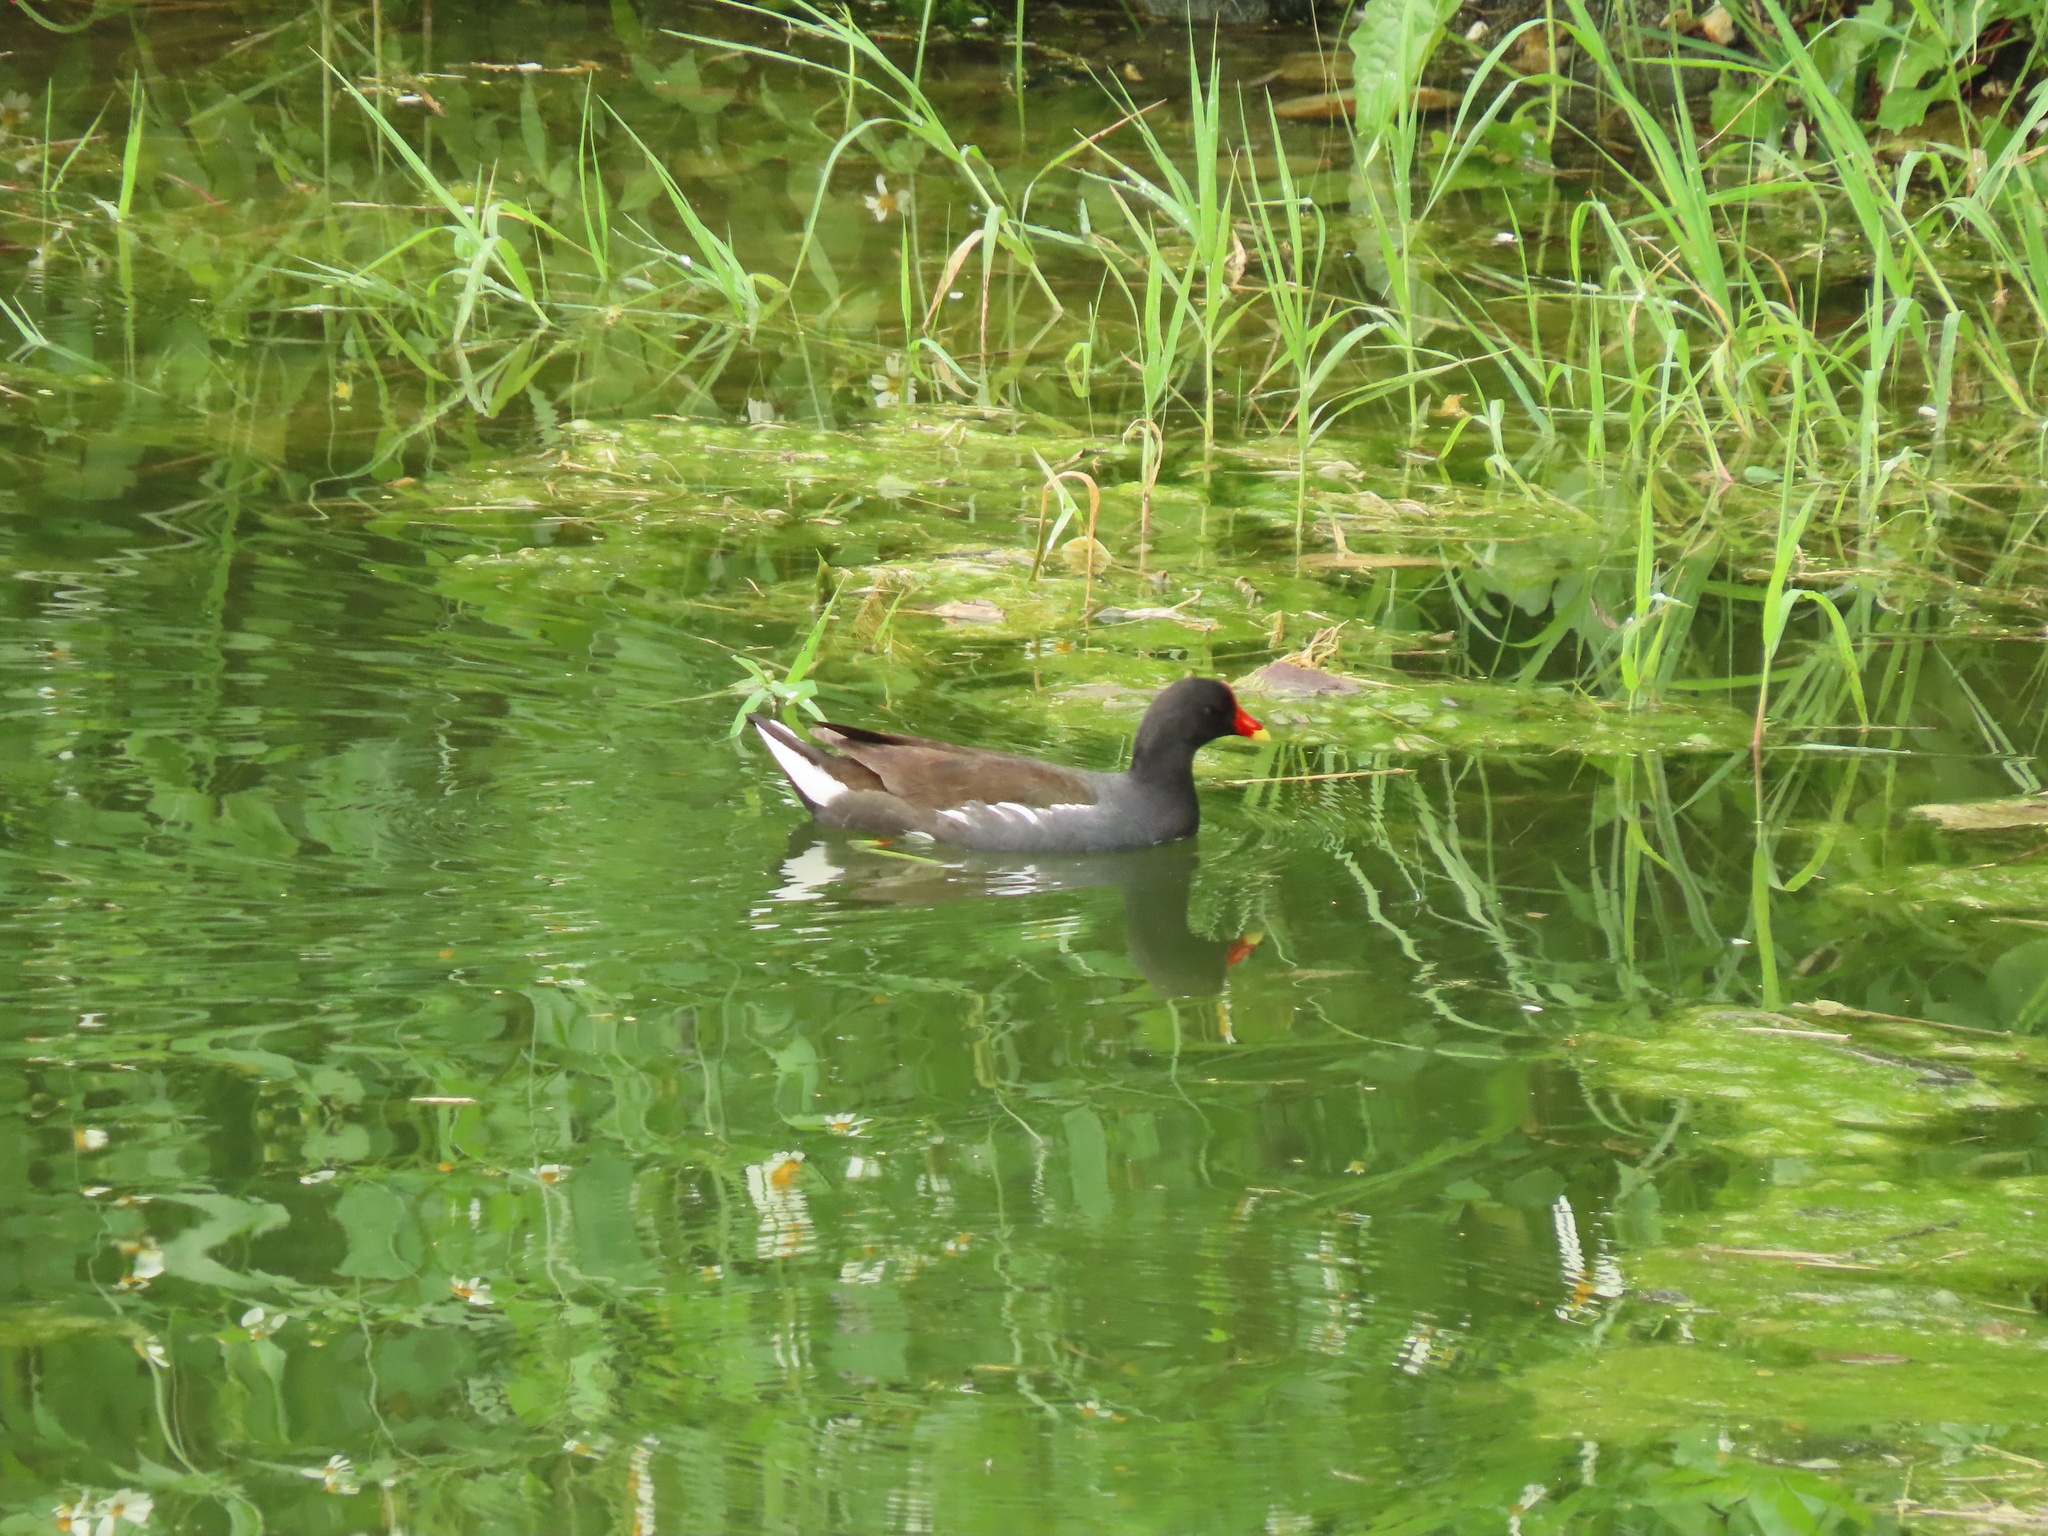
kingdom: Animalia
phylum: Chordata
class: Aves
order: Gruiformes
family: Rallidae
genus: Gallinula
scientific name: Gallinula chloropus
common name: Common moorhen
